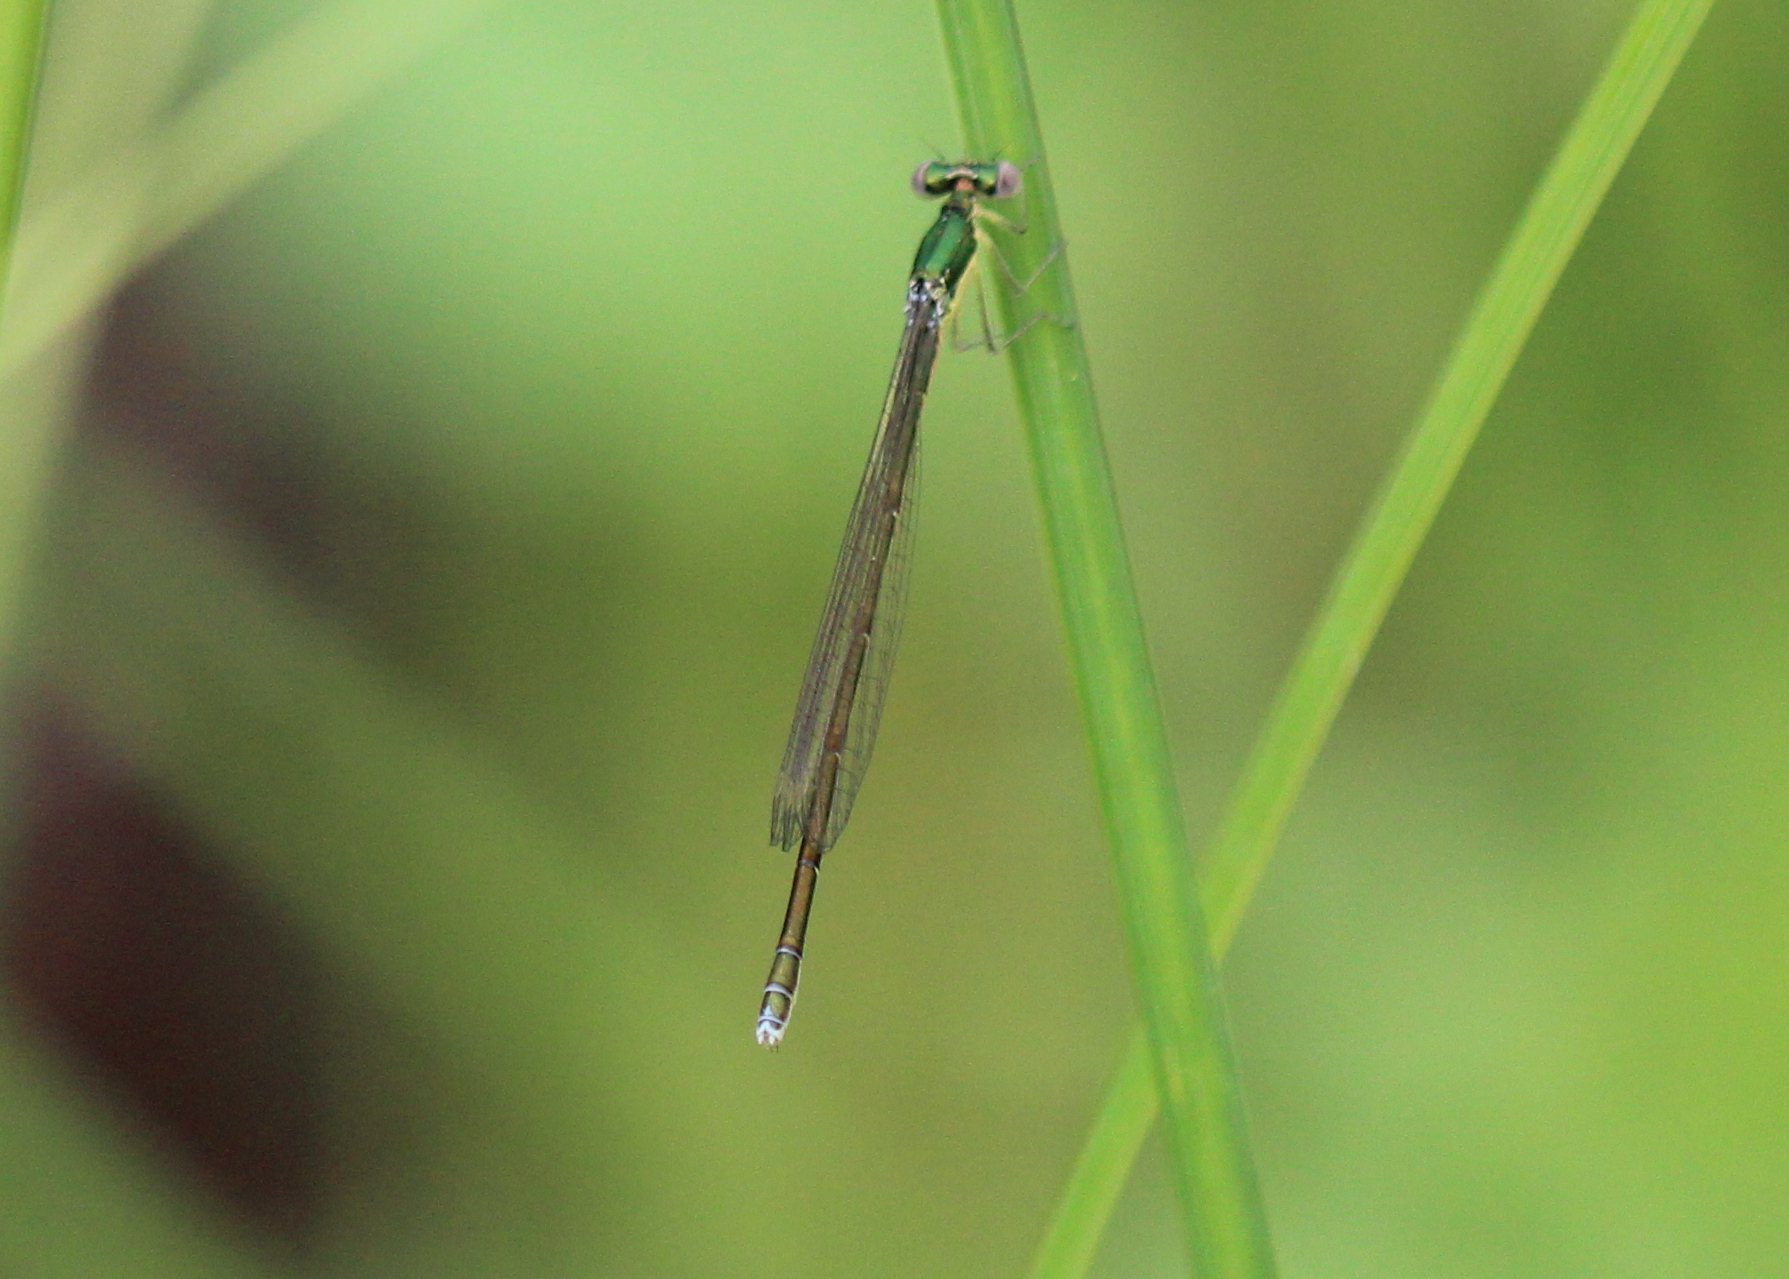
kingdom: Animalia
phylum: Arthropoda
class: Insecta
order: Odonata
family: Coenagrionidae
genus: Nehalennia
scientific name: Nehalennia irene
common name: Sedge sprite
